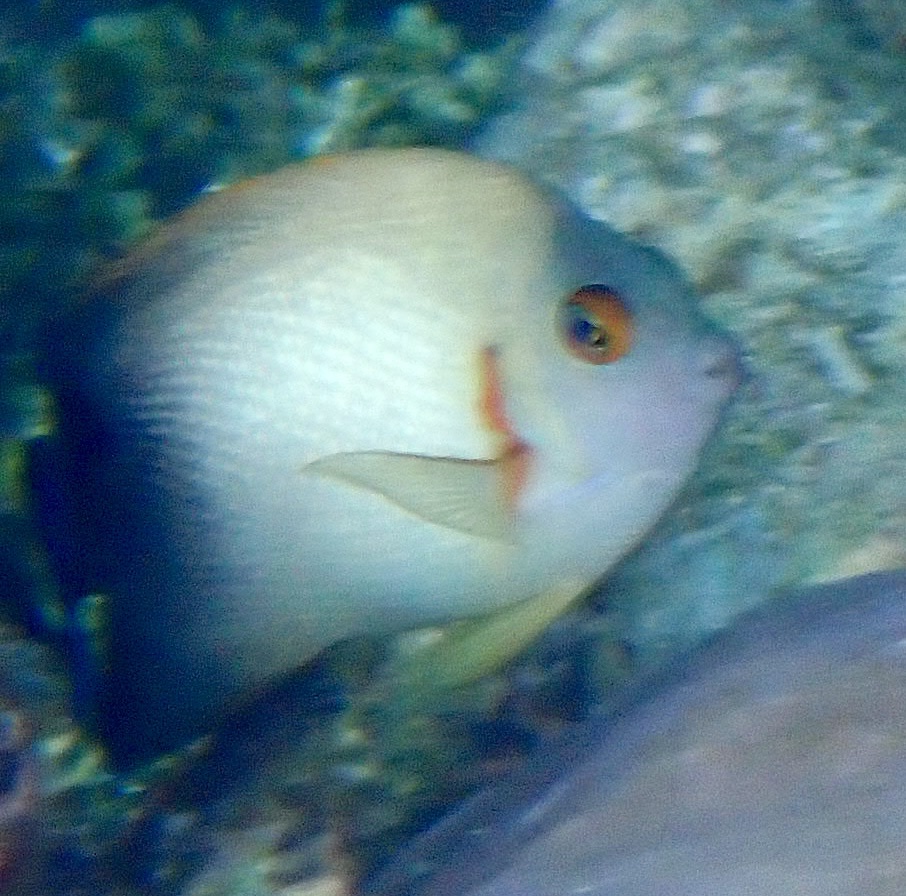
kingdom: Animalia
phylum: Chordata
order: Perciformes
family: Pomacanthidae
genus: Centropyge
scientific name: Centropyge vrolikii
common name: Pearlscale angelfish
